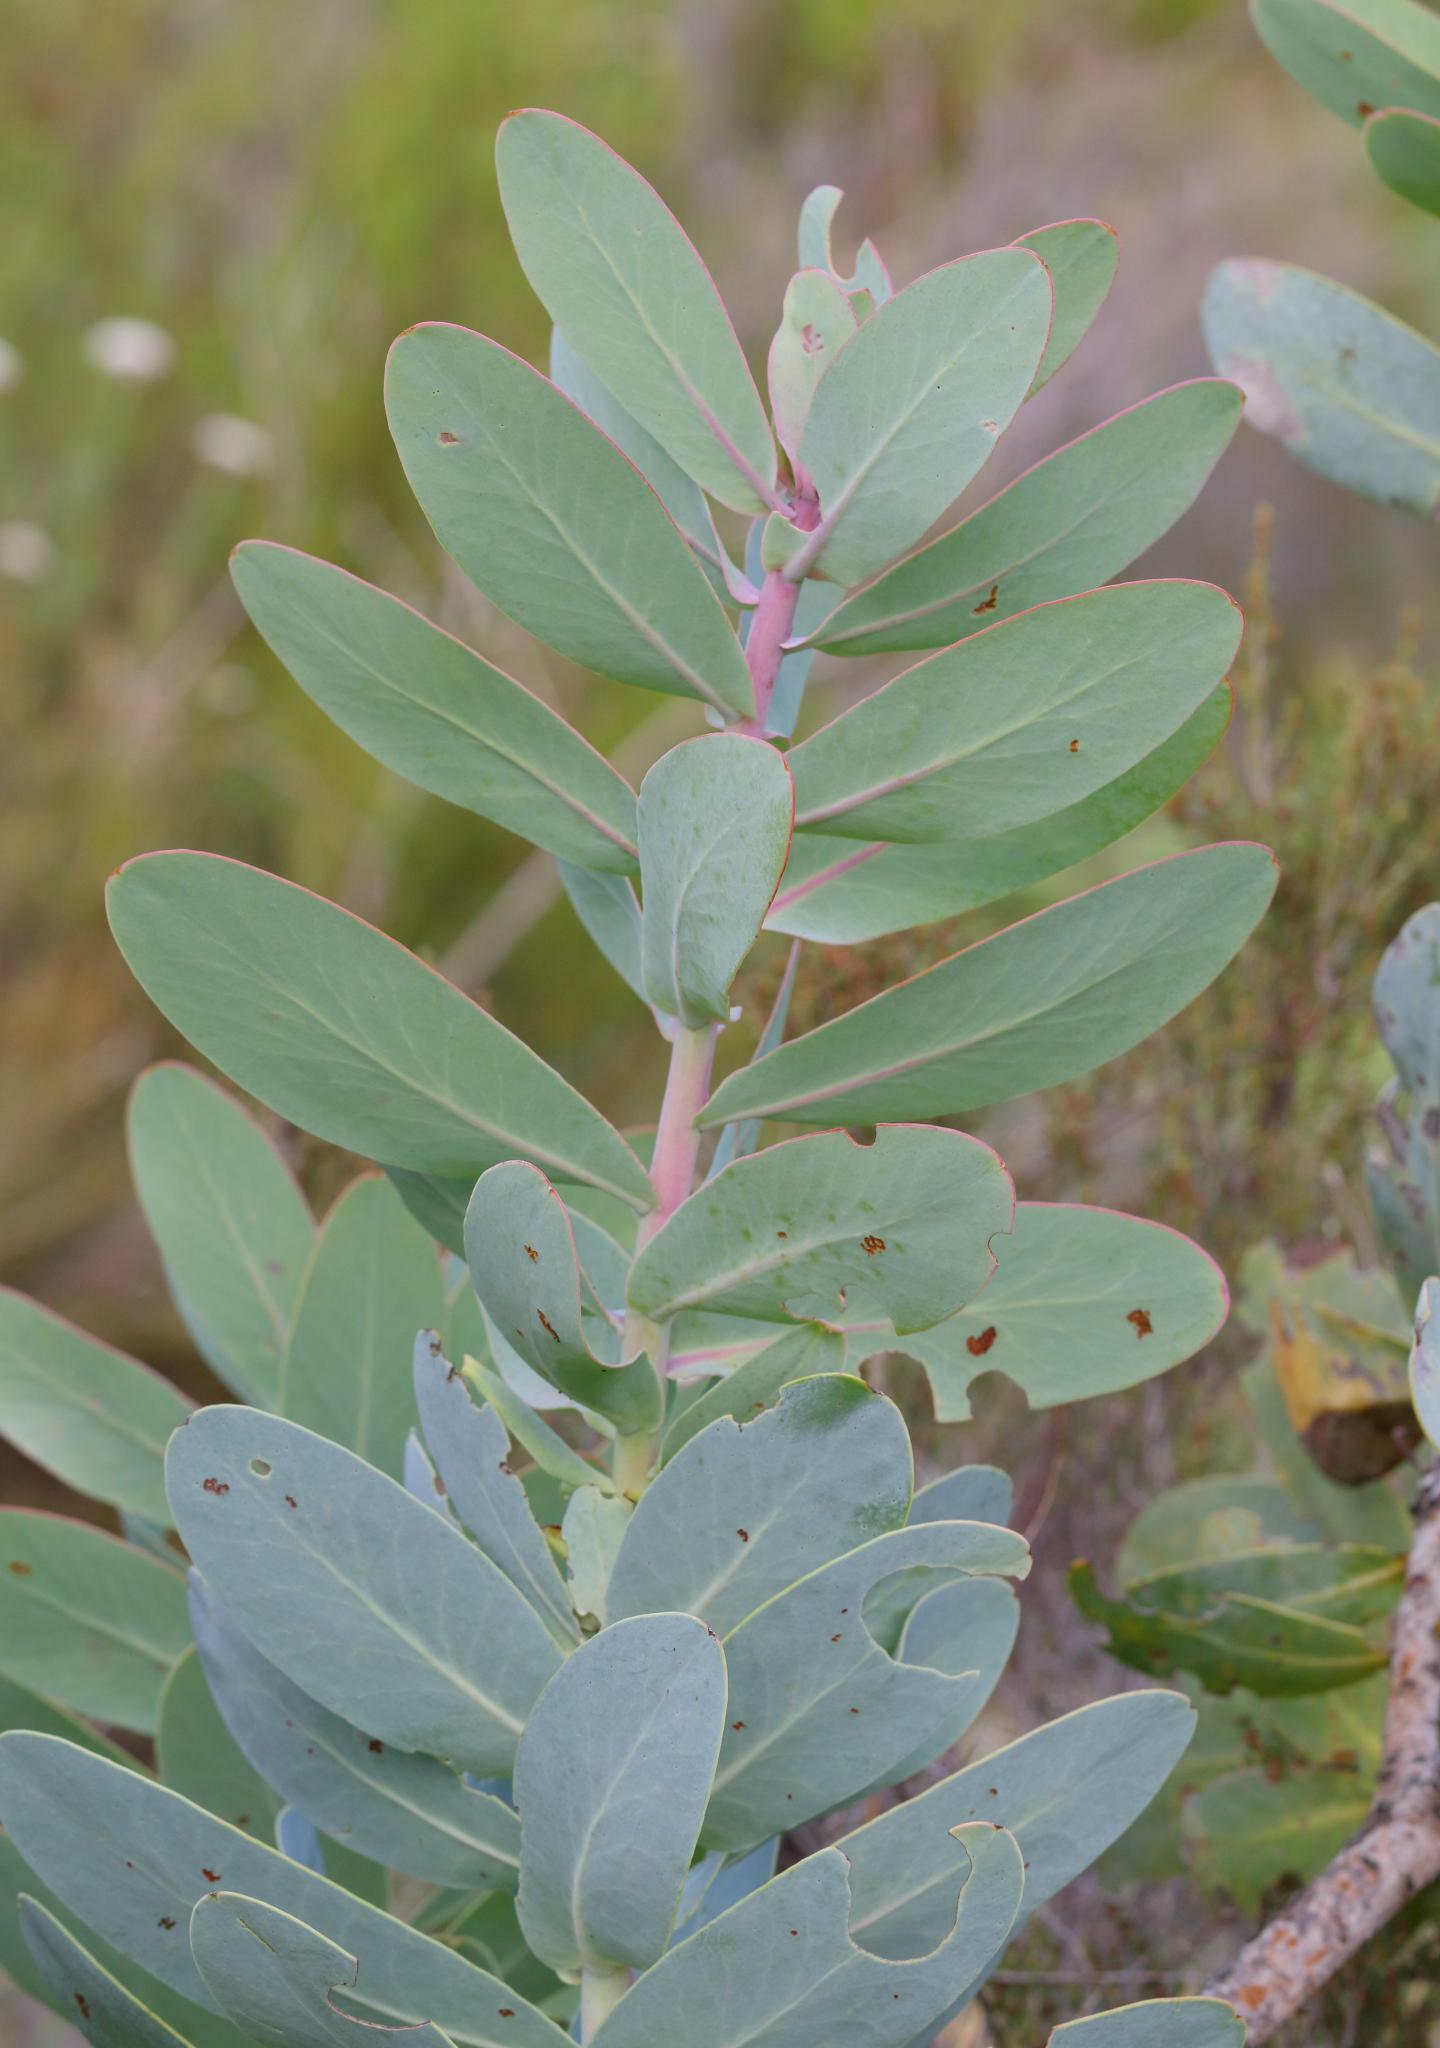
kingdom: Plantae
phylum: Tracheophyta
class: Magnoliopsida
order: Proteales
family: Proteaceae
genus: Protea
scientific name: Protea nitida
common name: Tree protea
